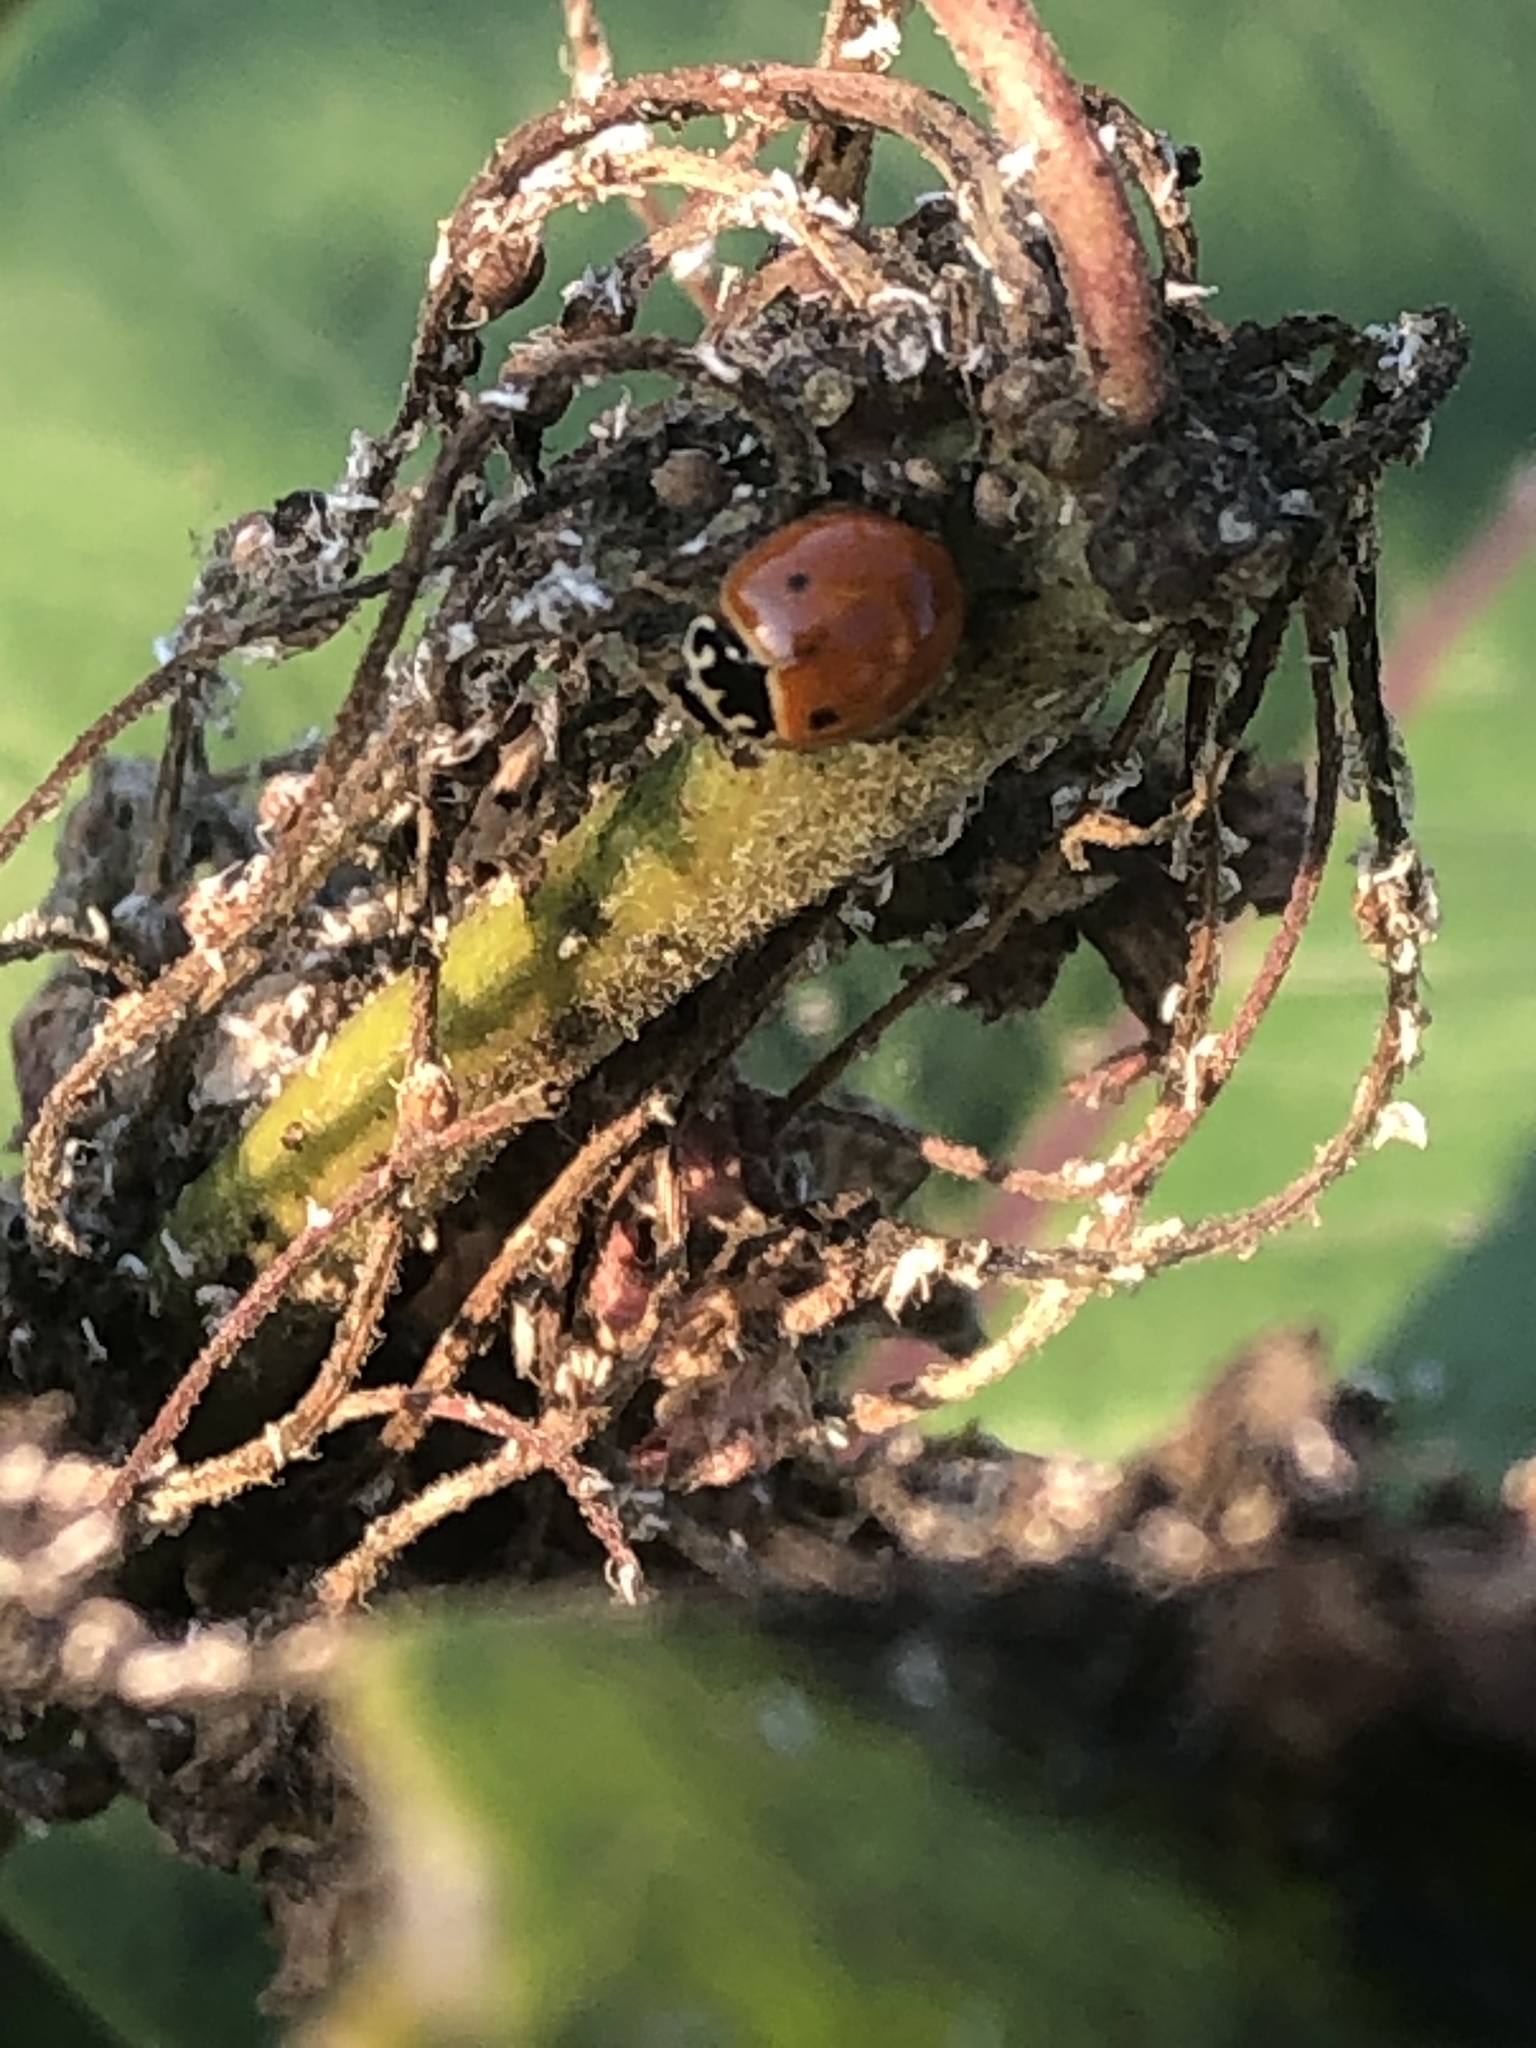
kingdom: Animalia
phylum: Arthropoda
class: Insecta
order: Coleoptera
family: Coccinellidae
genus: Cycloneda
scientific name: Cycloneda munda
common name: Polished lady beetle
